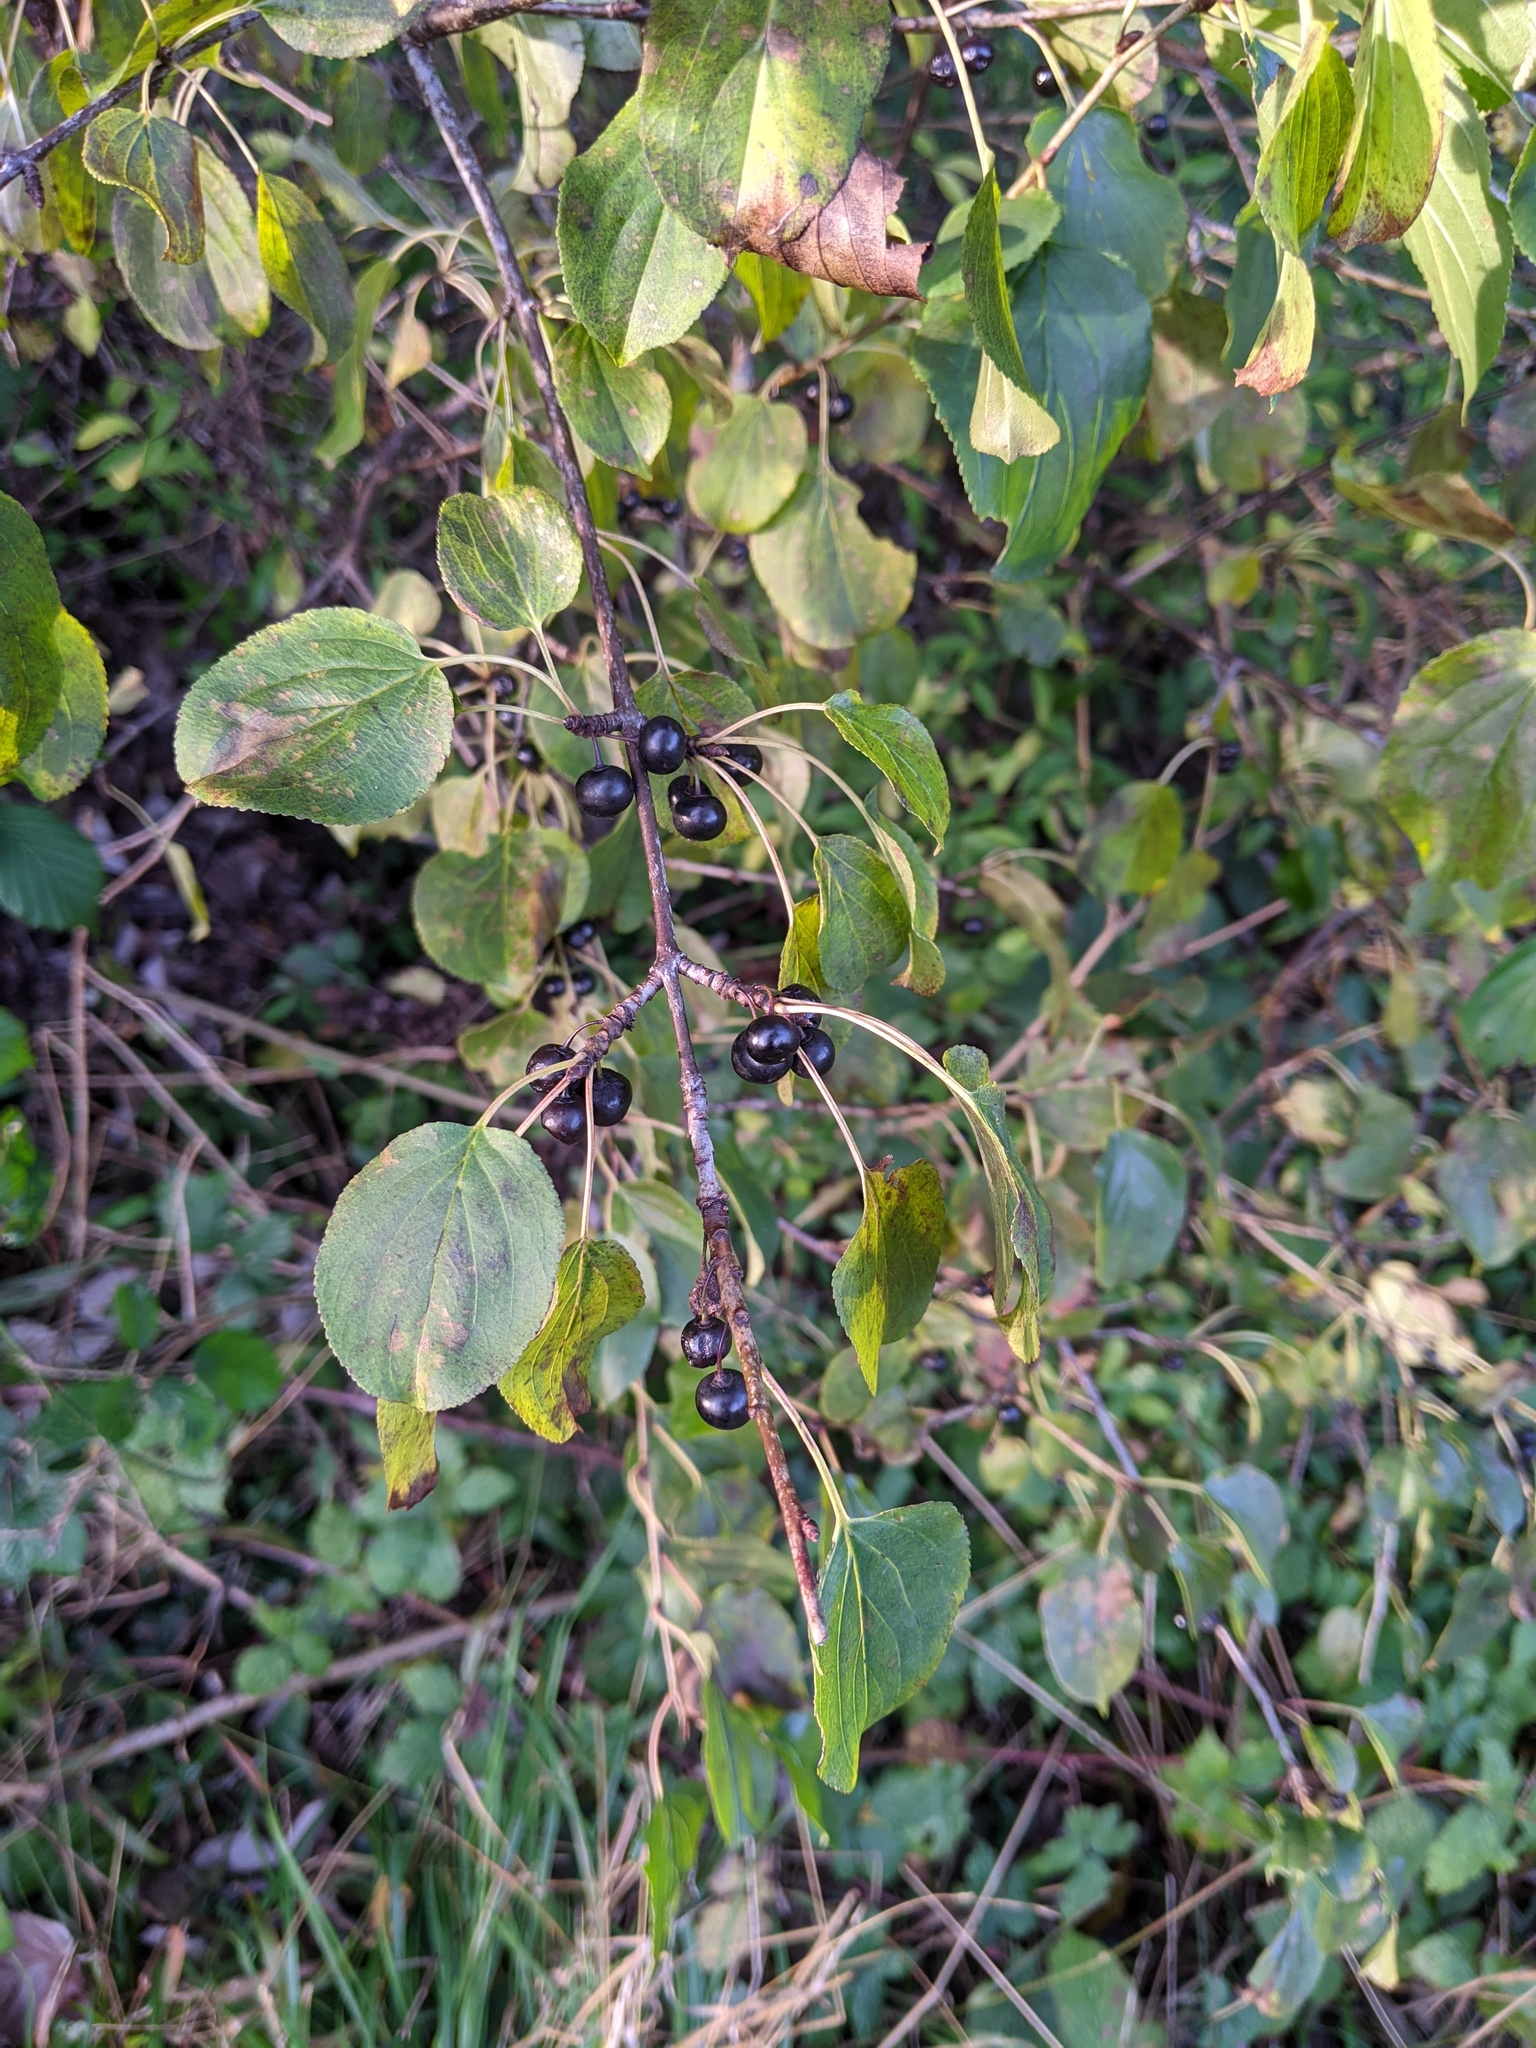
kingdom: Plantae
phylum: Tracheophyta
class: Magnoliopsida
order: Rosales
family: Rhamnaceae
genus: Rhamnus
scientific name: Rhamnus cathartica
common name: Common buckthorn
